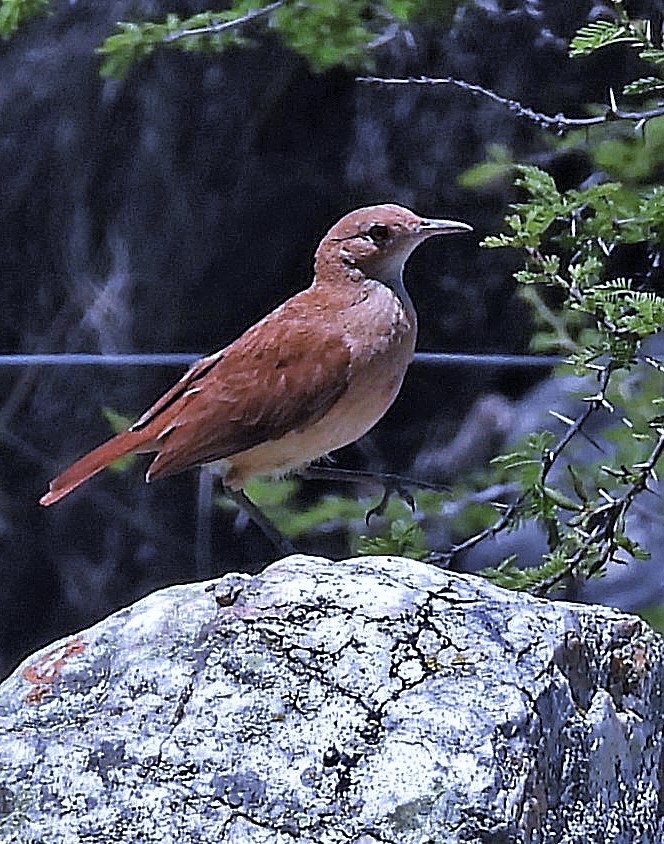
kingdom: Animalia
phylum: Chordata
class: Aves
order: Passeriformes
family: Furnariidae
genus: Furnarius
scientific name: Furnarius rufus
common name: Rufous hornero
